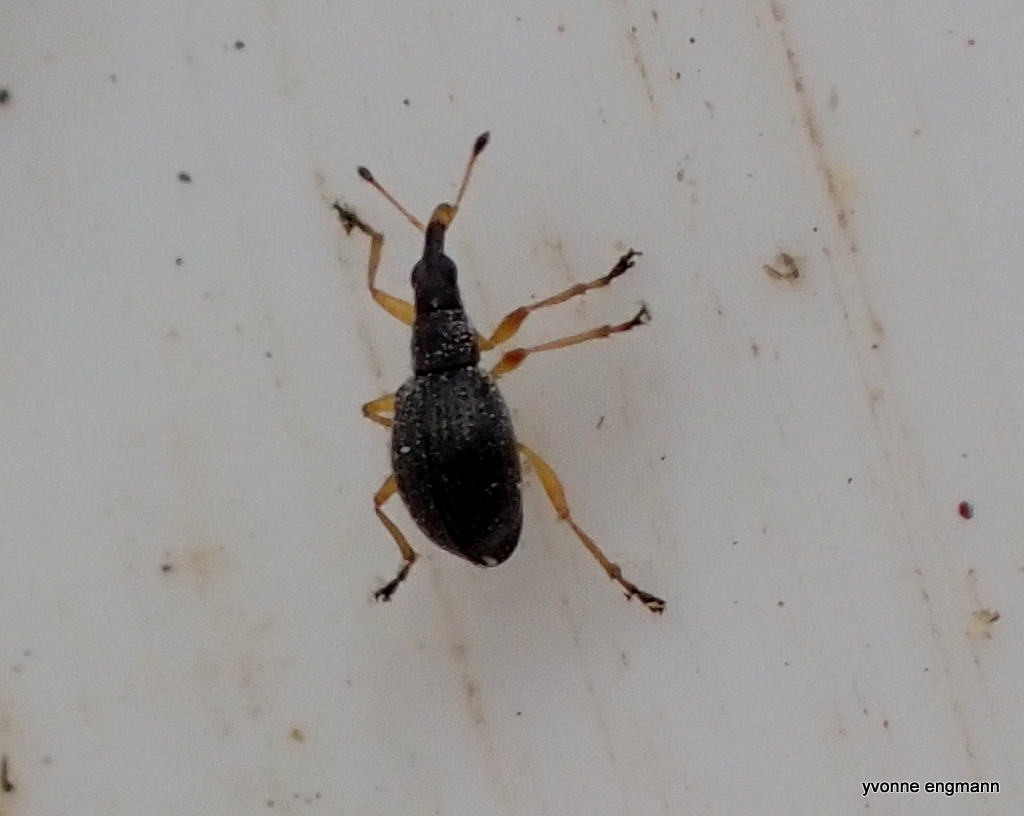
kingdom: Animalia
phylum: Arthropoda
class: Insecta
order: Coleoptera
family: Apionidae
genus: Protapion
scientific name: Protapion nigritarse
